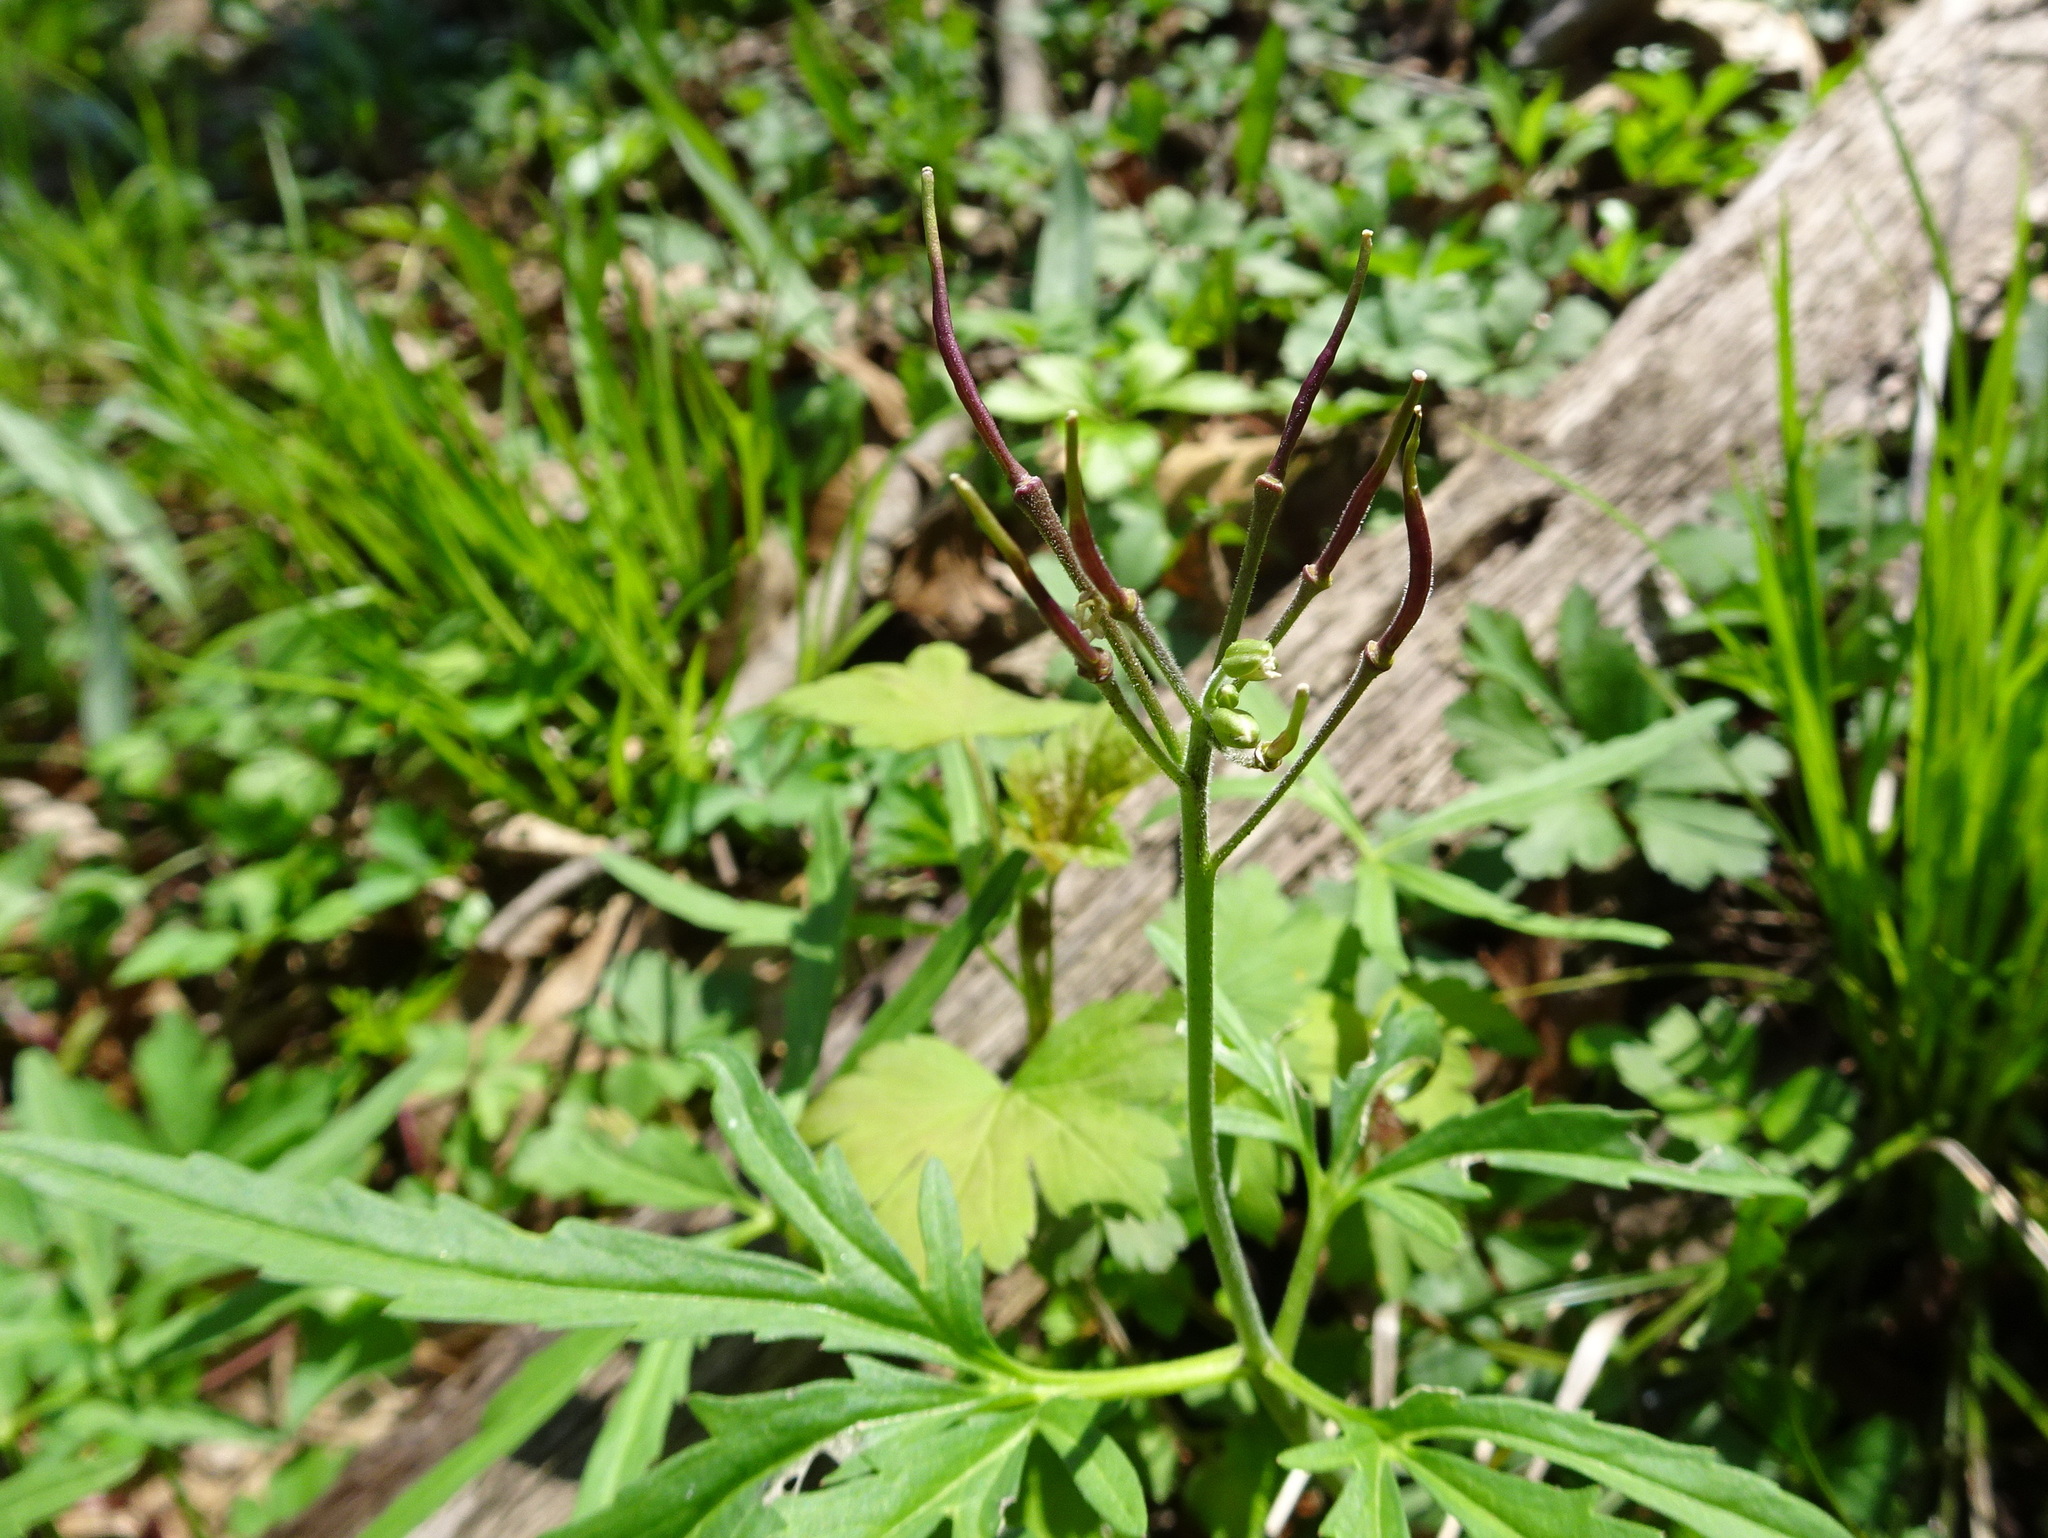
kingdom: Plantae
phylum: Tracheophyta
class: Magnoliopsida
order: Brassicales
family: Brassicaceae
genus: Cardamine
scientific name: Cardamine concatenata
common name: Cut-leaf toothcup
